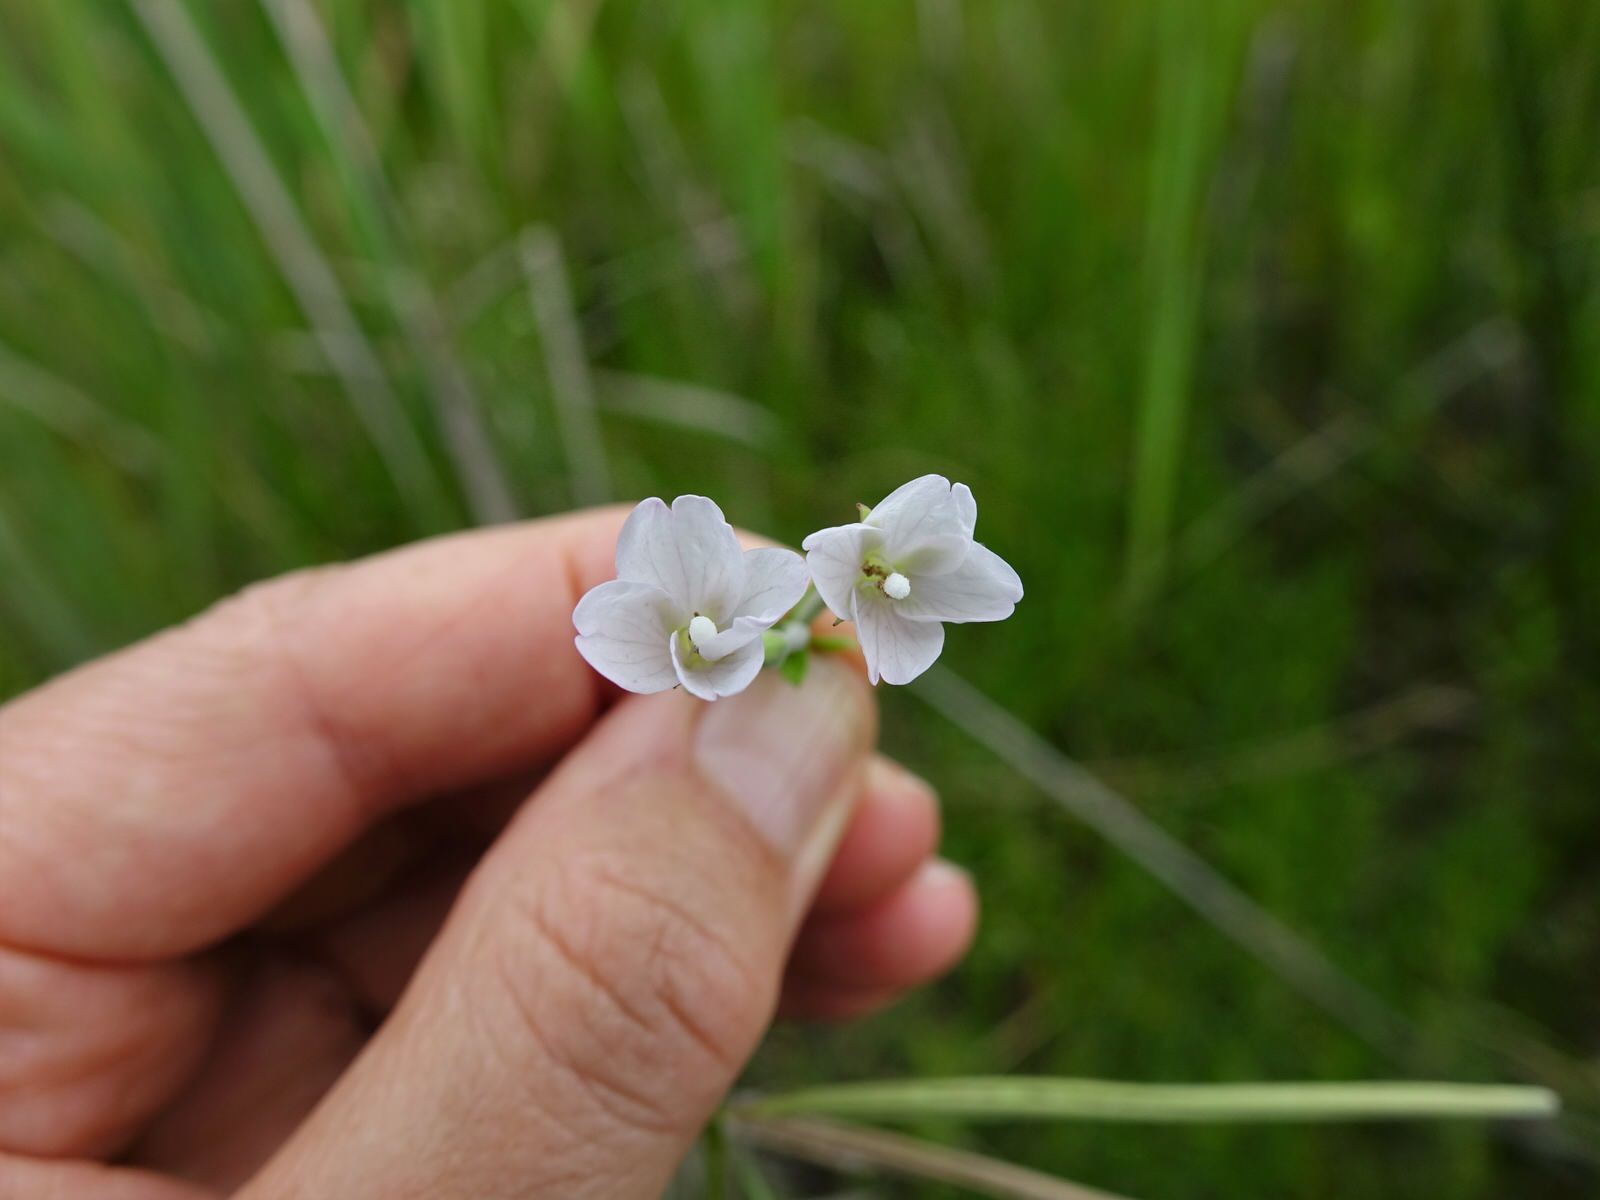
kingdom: Plantae
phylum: Tracheophyta
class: Magnoliopsida
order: Myrtales
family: Onagraceae
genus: Epilobium
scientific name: Epilobium pallidiflorum
